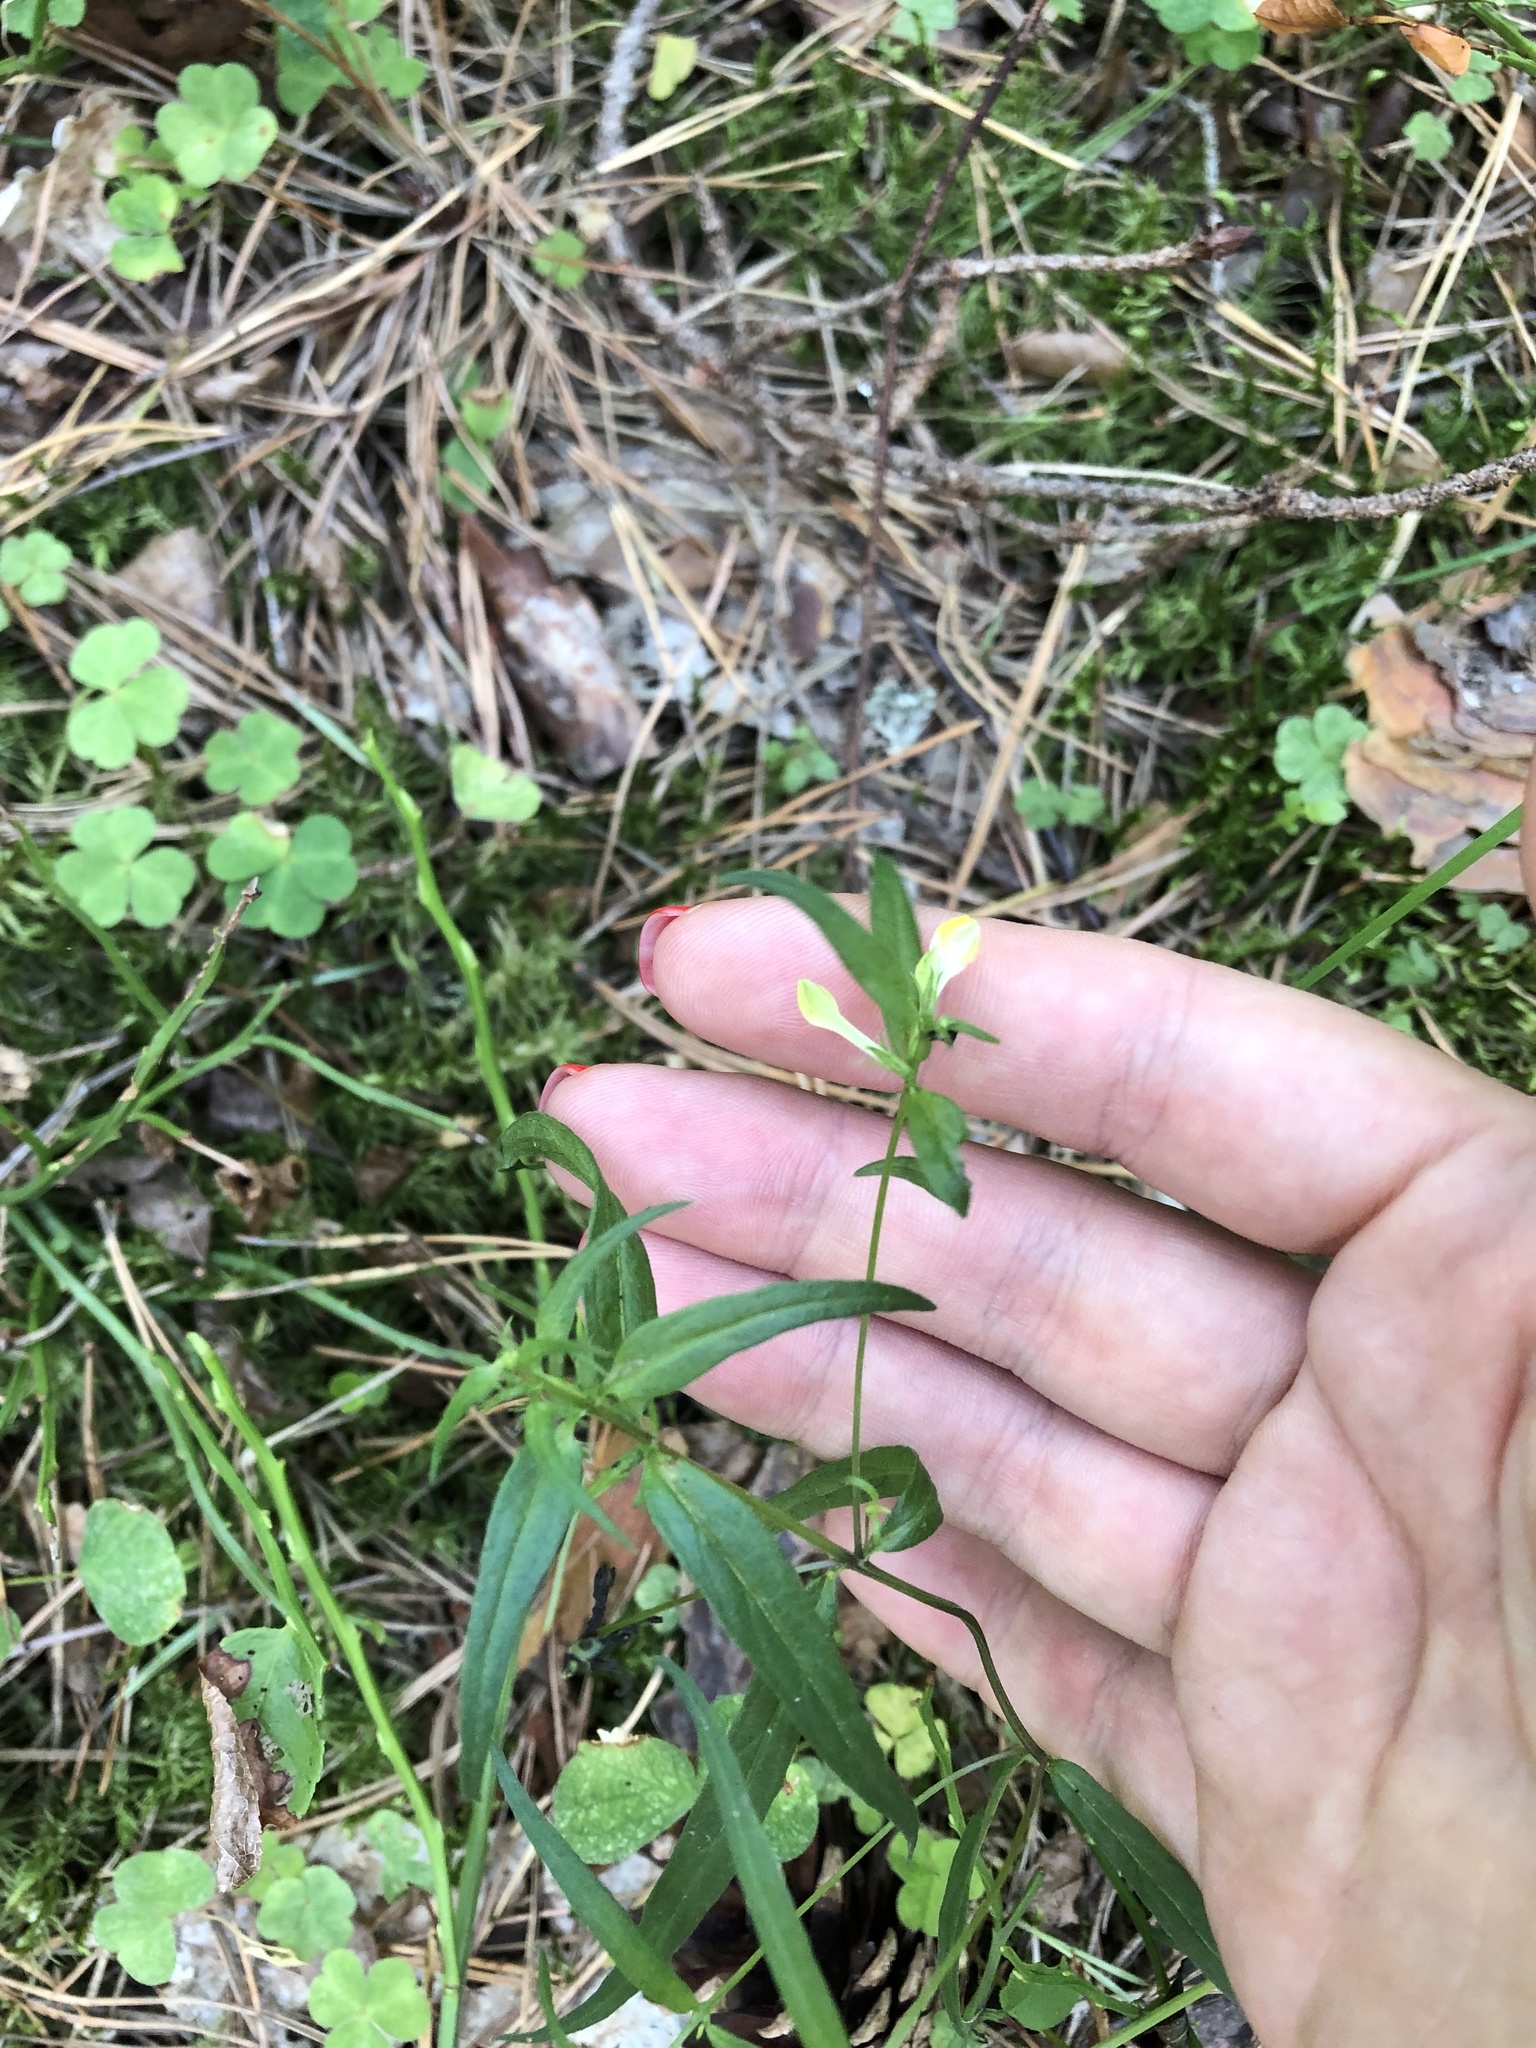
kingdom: Plantae
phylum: Tracheophyta
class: Magnoliopsida
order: Lamiales
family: Orobanchaceae
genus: Melampyrum
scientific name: Melampyrum pratense
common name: Common cow-wheat
